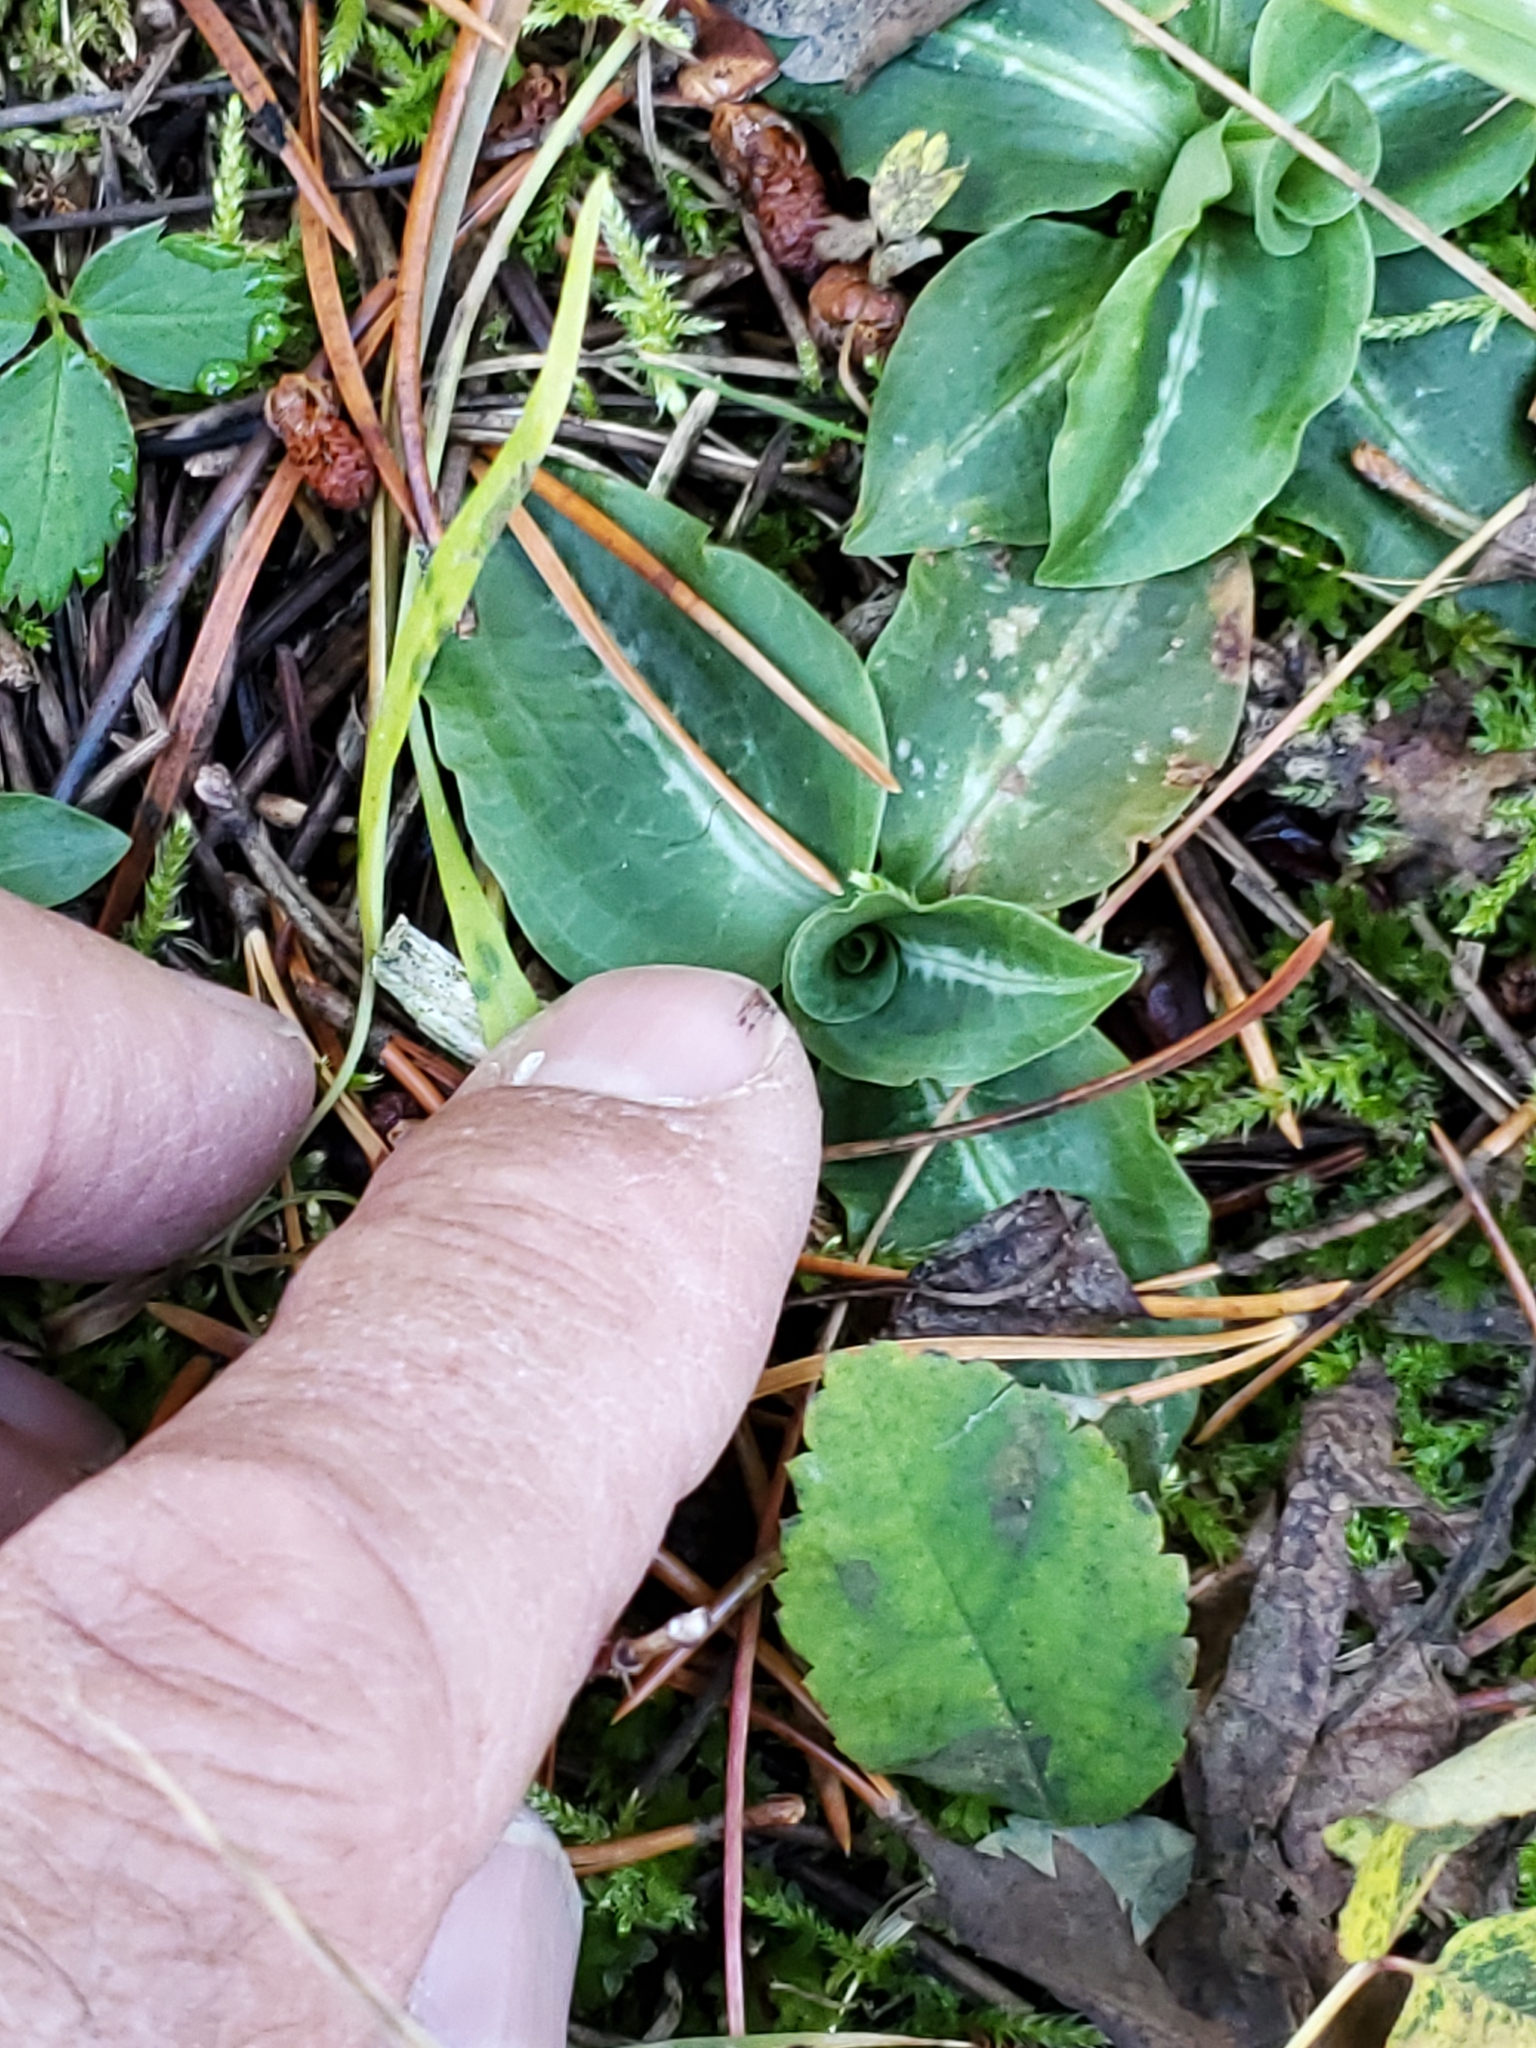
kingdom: Plantae
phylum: Tracheophyta
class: Liliopsida
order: Asparagales
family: Orchidaceae
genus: Goodyera
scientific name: Goodyera oblongifolia
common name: Giant rattlesnake-plantain
